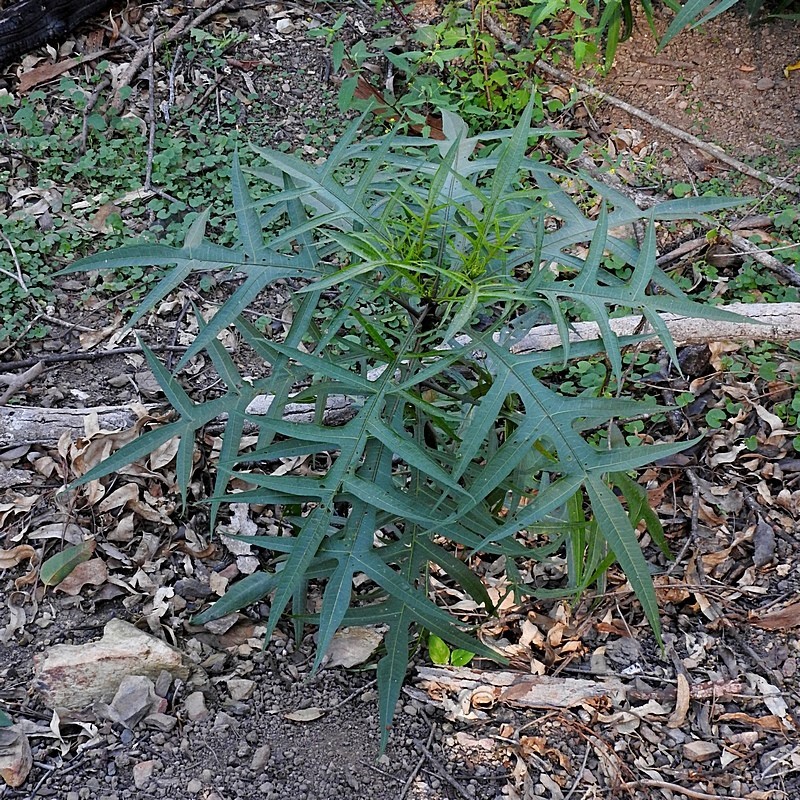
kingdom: Plantae
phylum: Tracheophyta
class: Magnoliopsida
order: Solanales
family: Solanaceae
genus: Solanum
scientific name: Solanum aviculare
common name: New zealand nightshade
